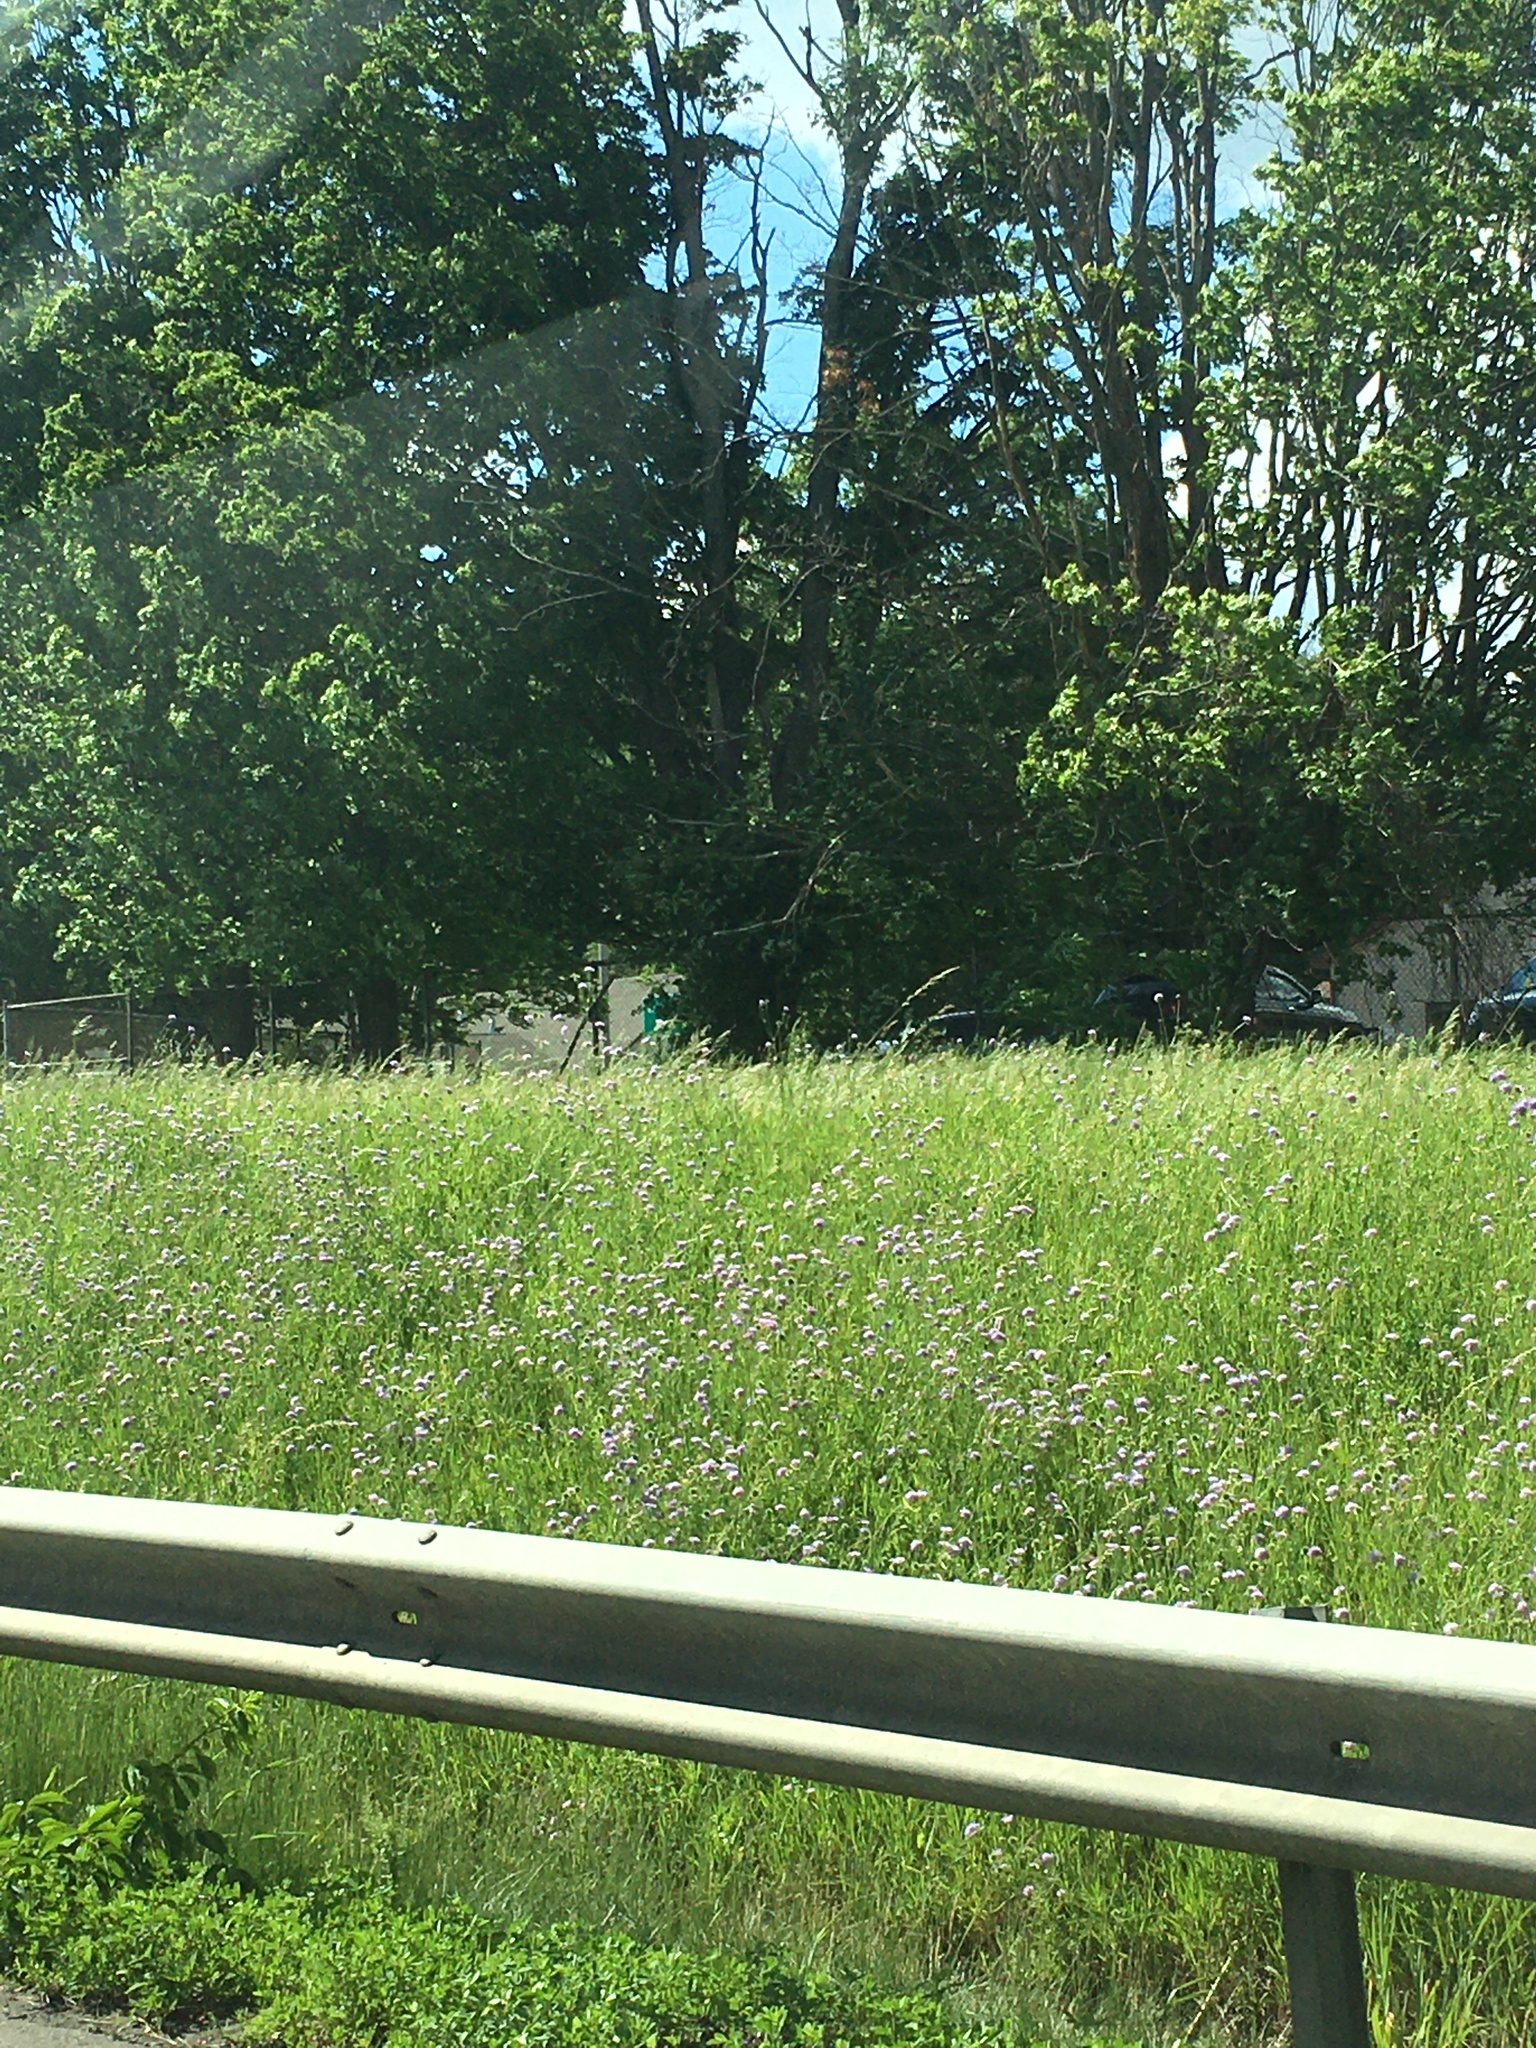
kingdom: Plantae
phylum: Tracheophyta
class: Magnoliopsida
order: Dipsacales
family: Caprifoliaceae
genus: Knautia
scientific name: Knautia arvensis
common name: Field scabiosa
